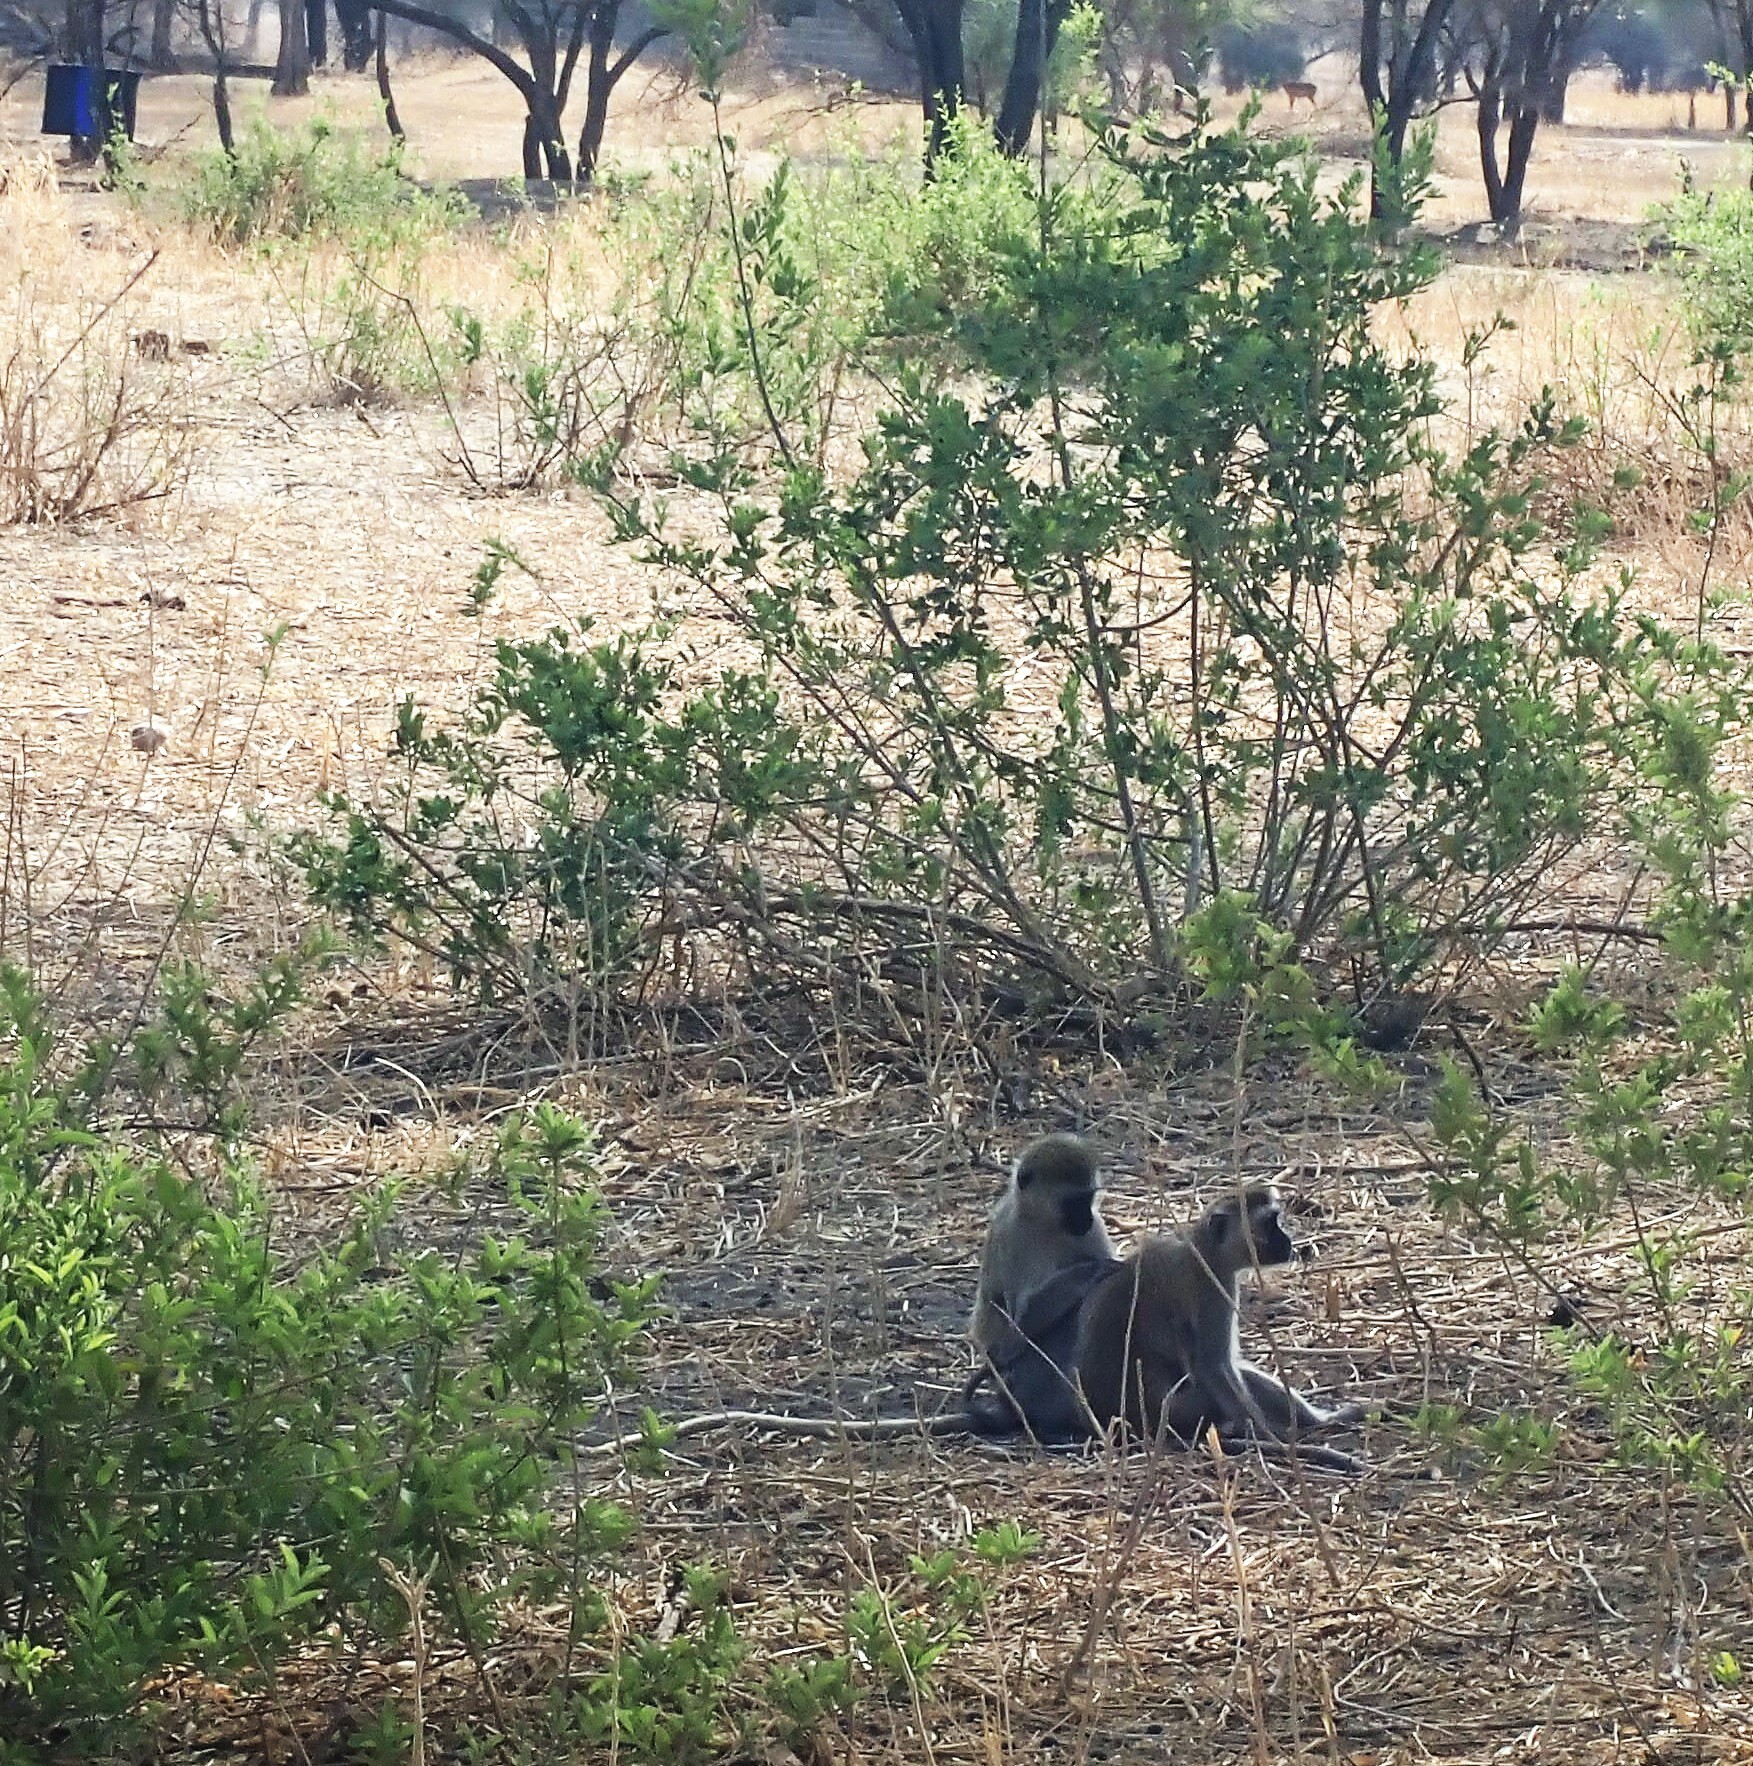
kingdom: Animalia
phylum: Chordata
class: Mammalia
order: Primates
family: Cercopithecidae
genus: Chlorocebus
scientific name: Chlorocebus pygerythrus
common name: Vervet monkey
